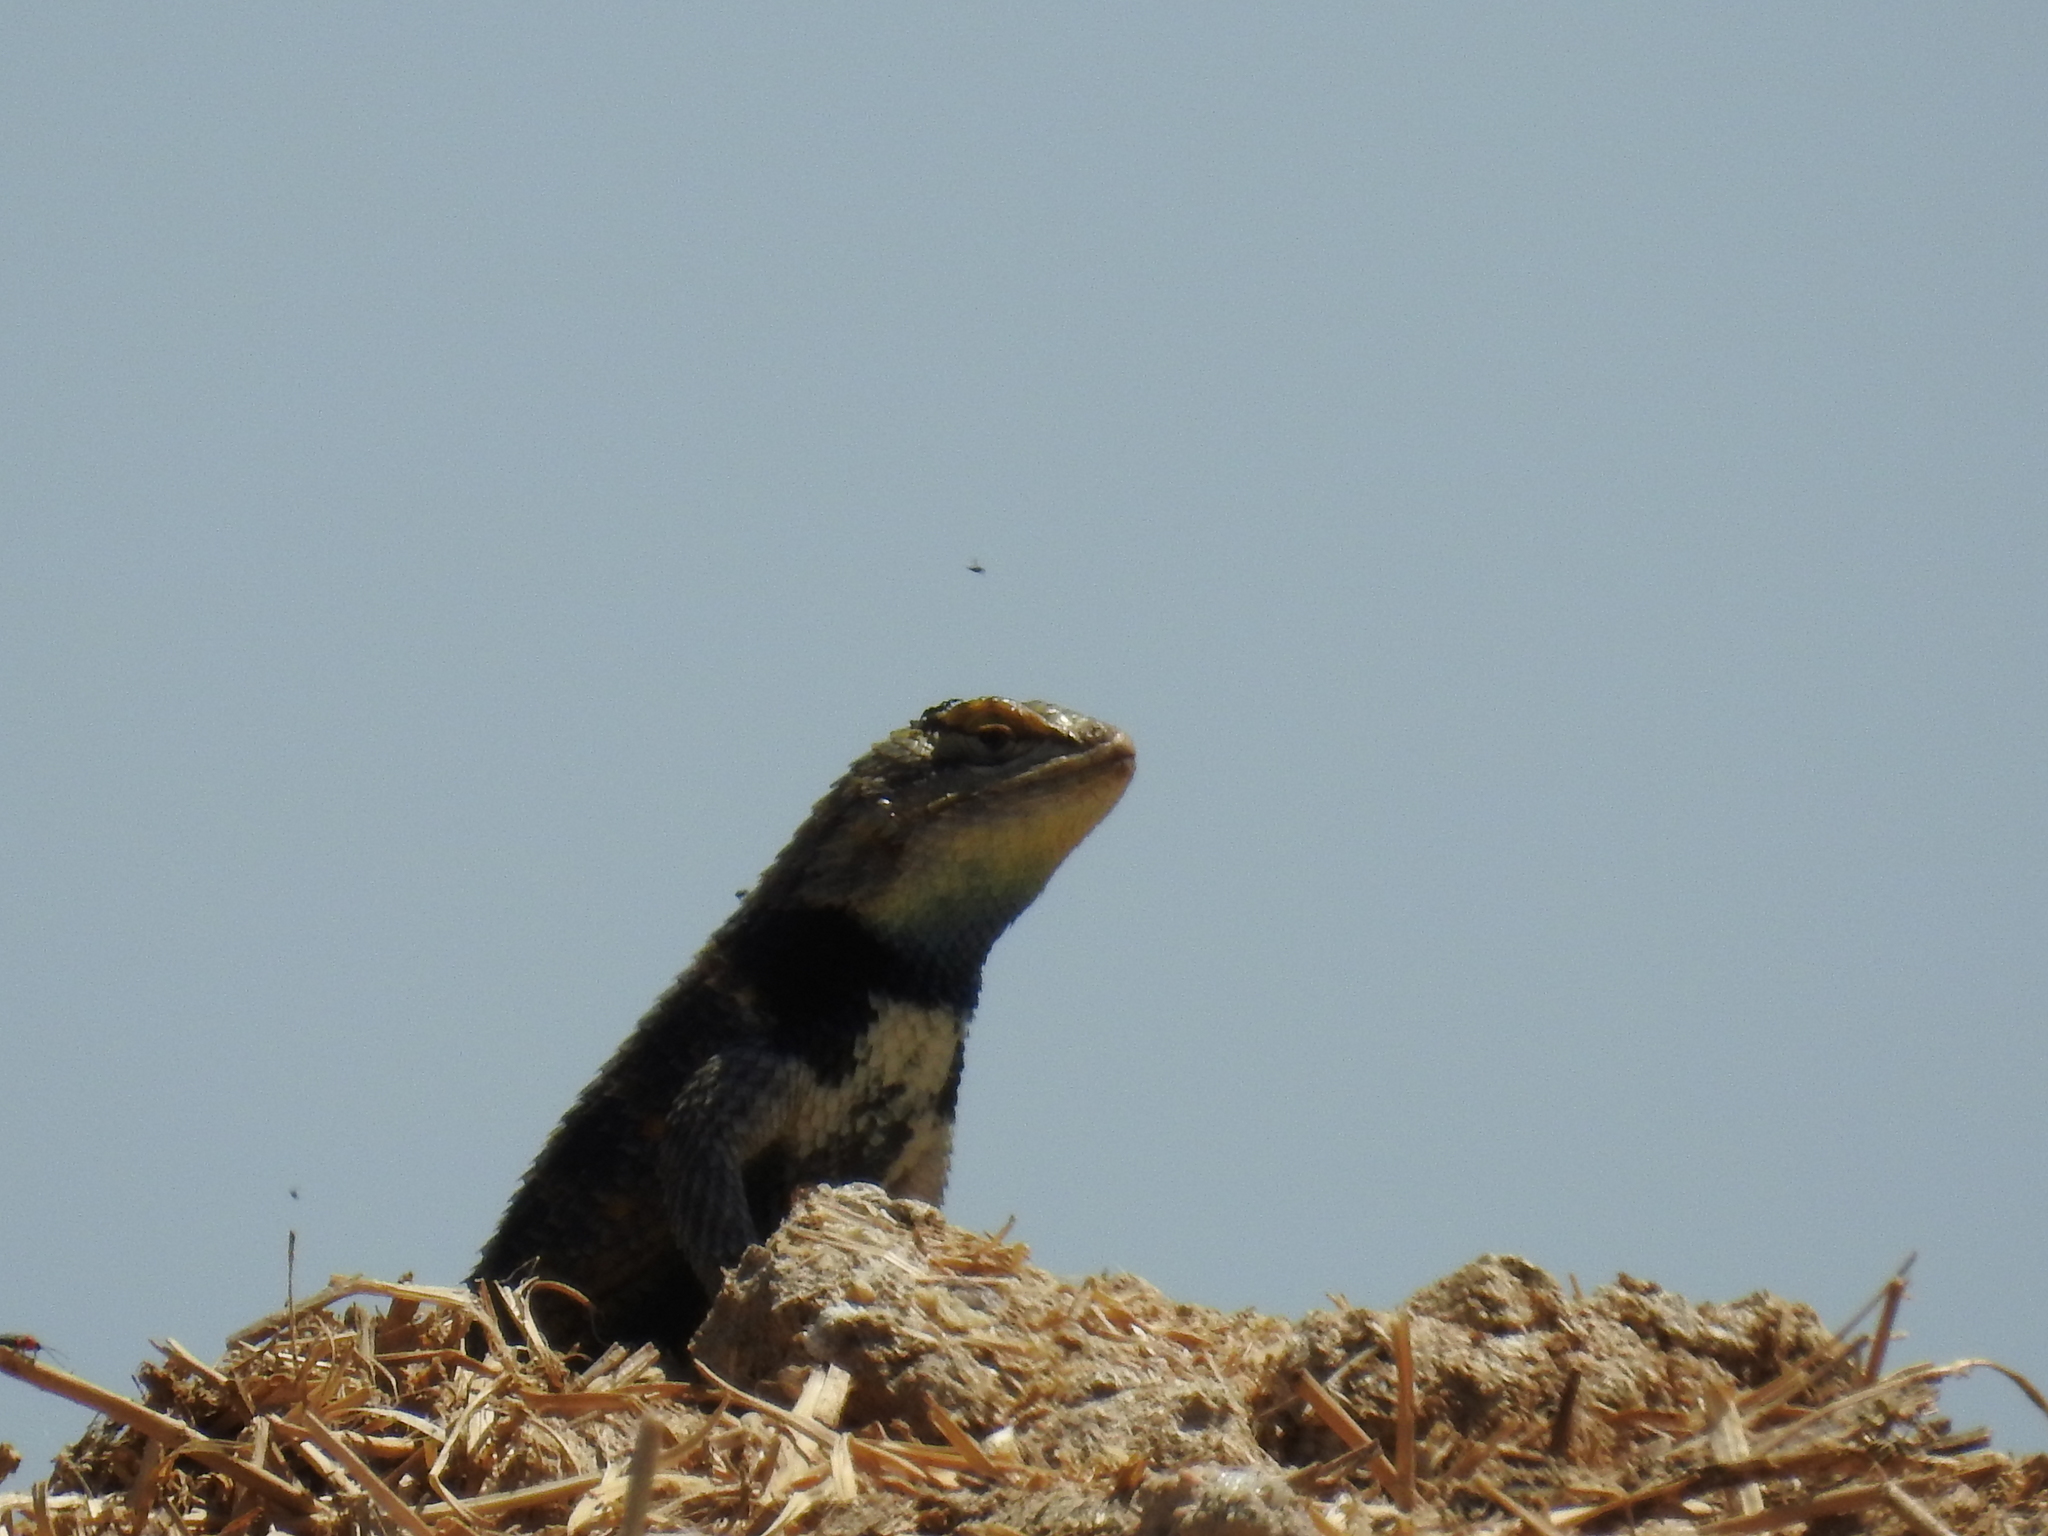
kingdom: Animalia
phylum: Chordata
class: Squamata
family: Phrynosomatidae
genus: Sceloporus
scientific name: Sceloporus uniformis
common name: Yellow-backed spiny lizard
